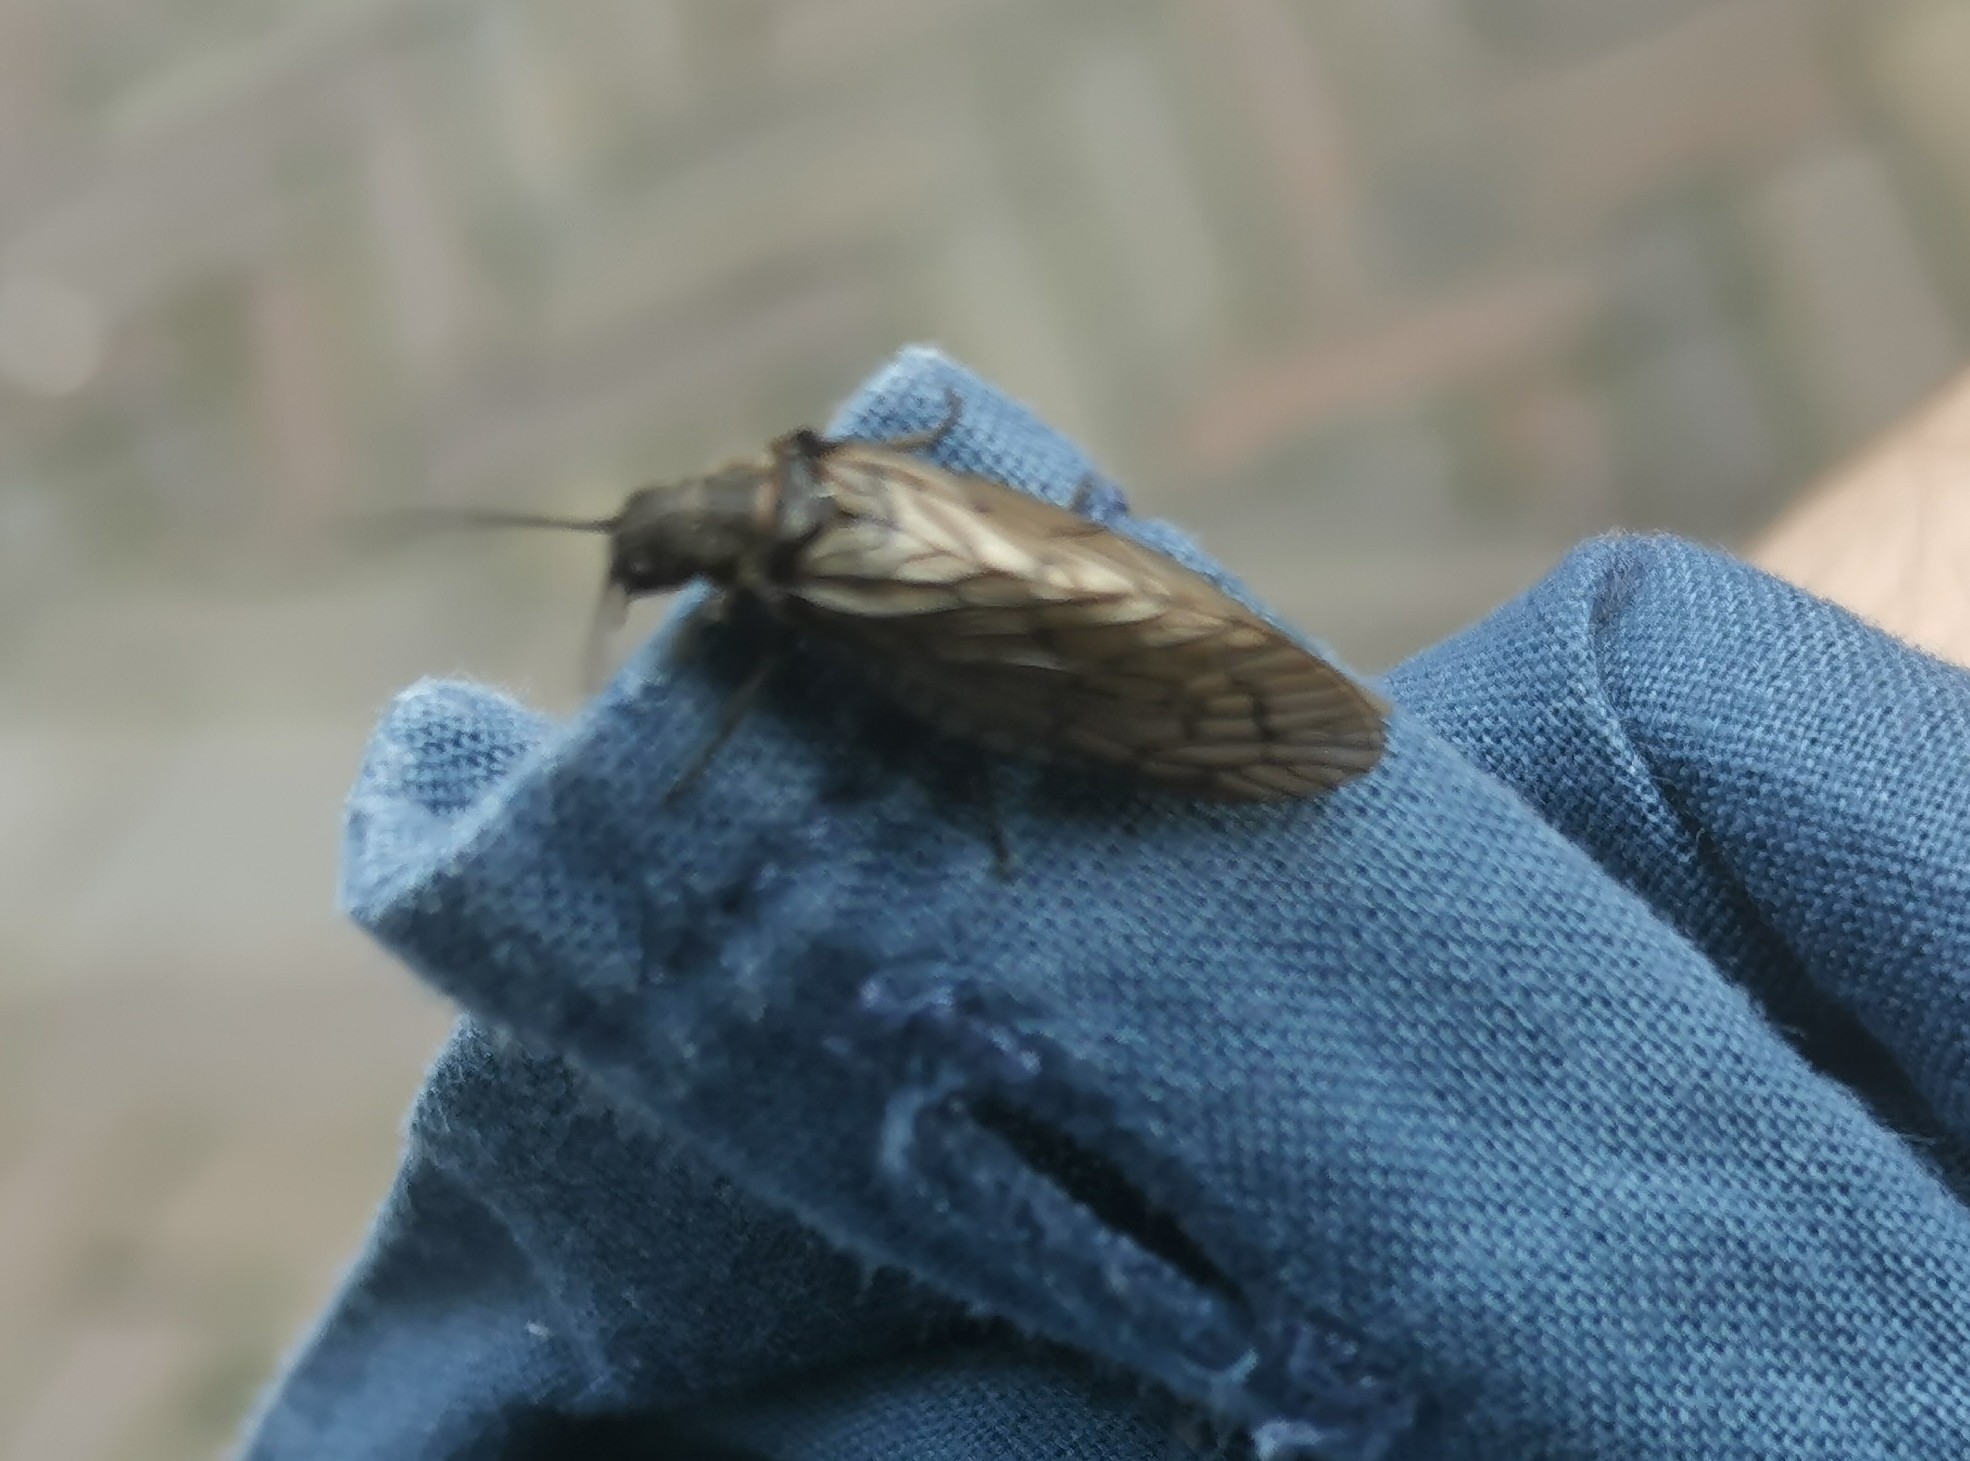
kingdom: Animalia
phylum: Arthropoda
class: Insecta
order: Megaloptera
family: Sialidae
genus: Sialis
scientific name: Sialis
